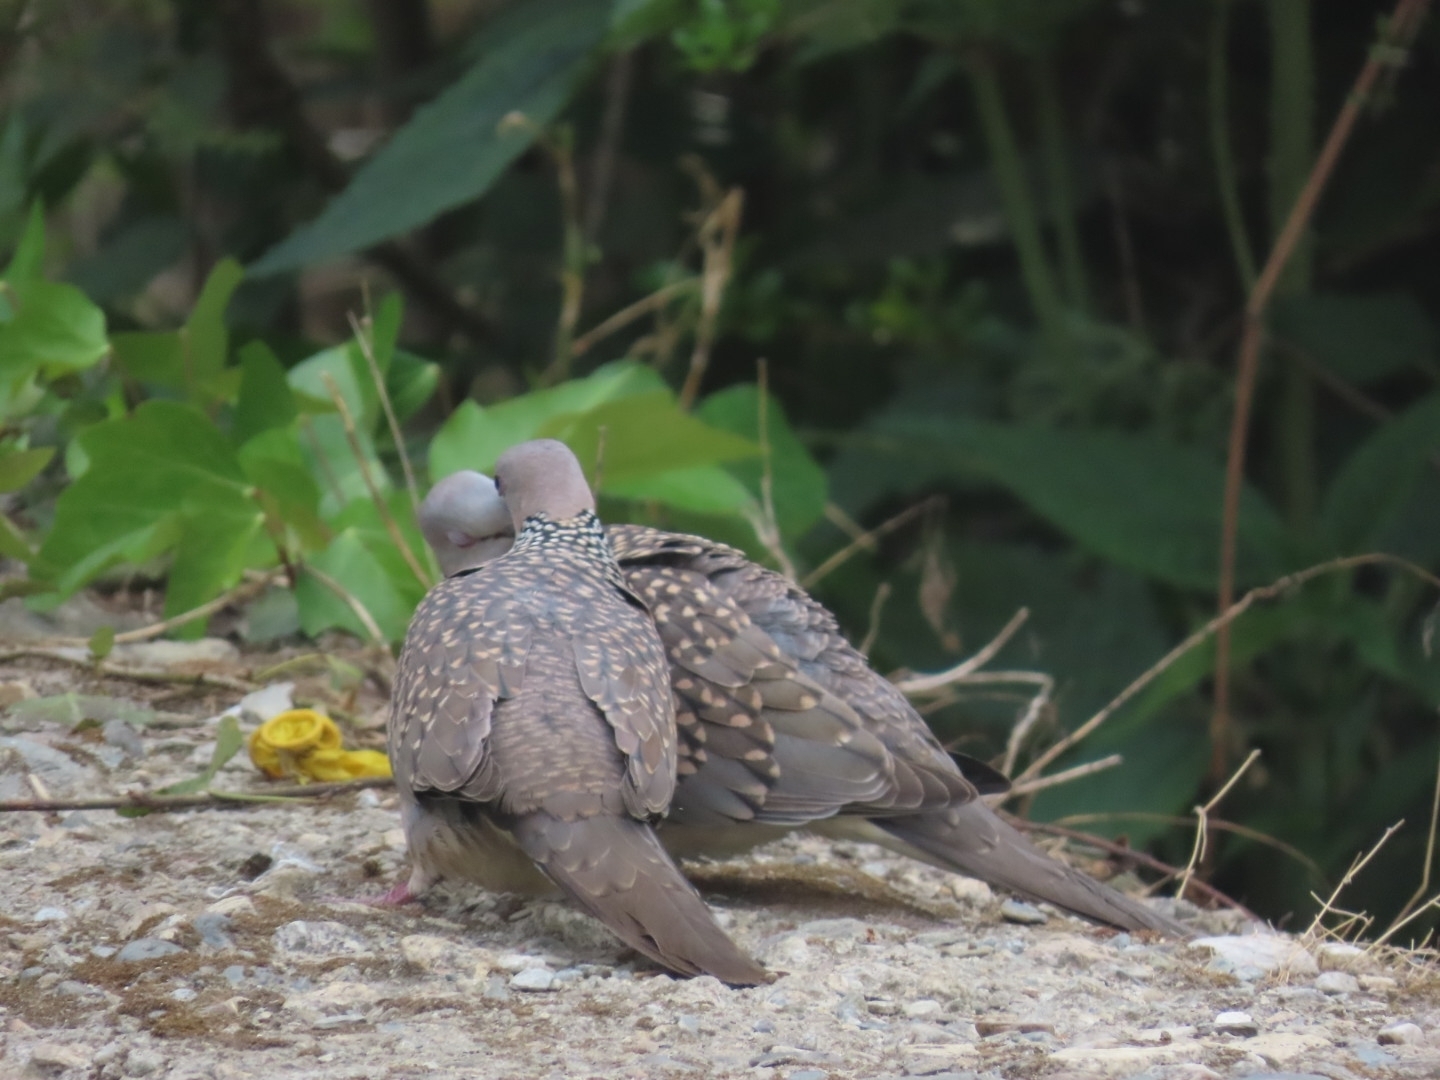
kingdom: Animalia
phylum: Chordata
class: Aves
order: Columbiformes
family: Columbidae
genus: Spilopelia
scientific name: Spilopelia chinensis
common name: Spotted dove
